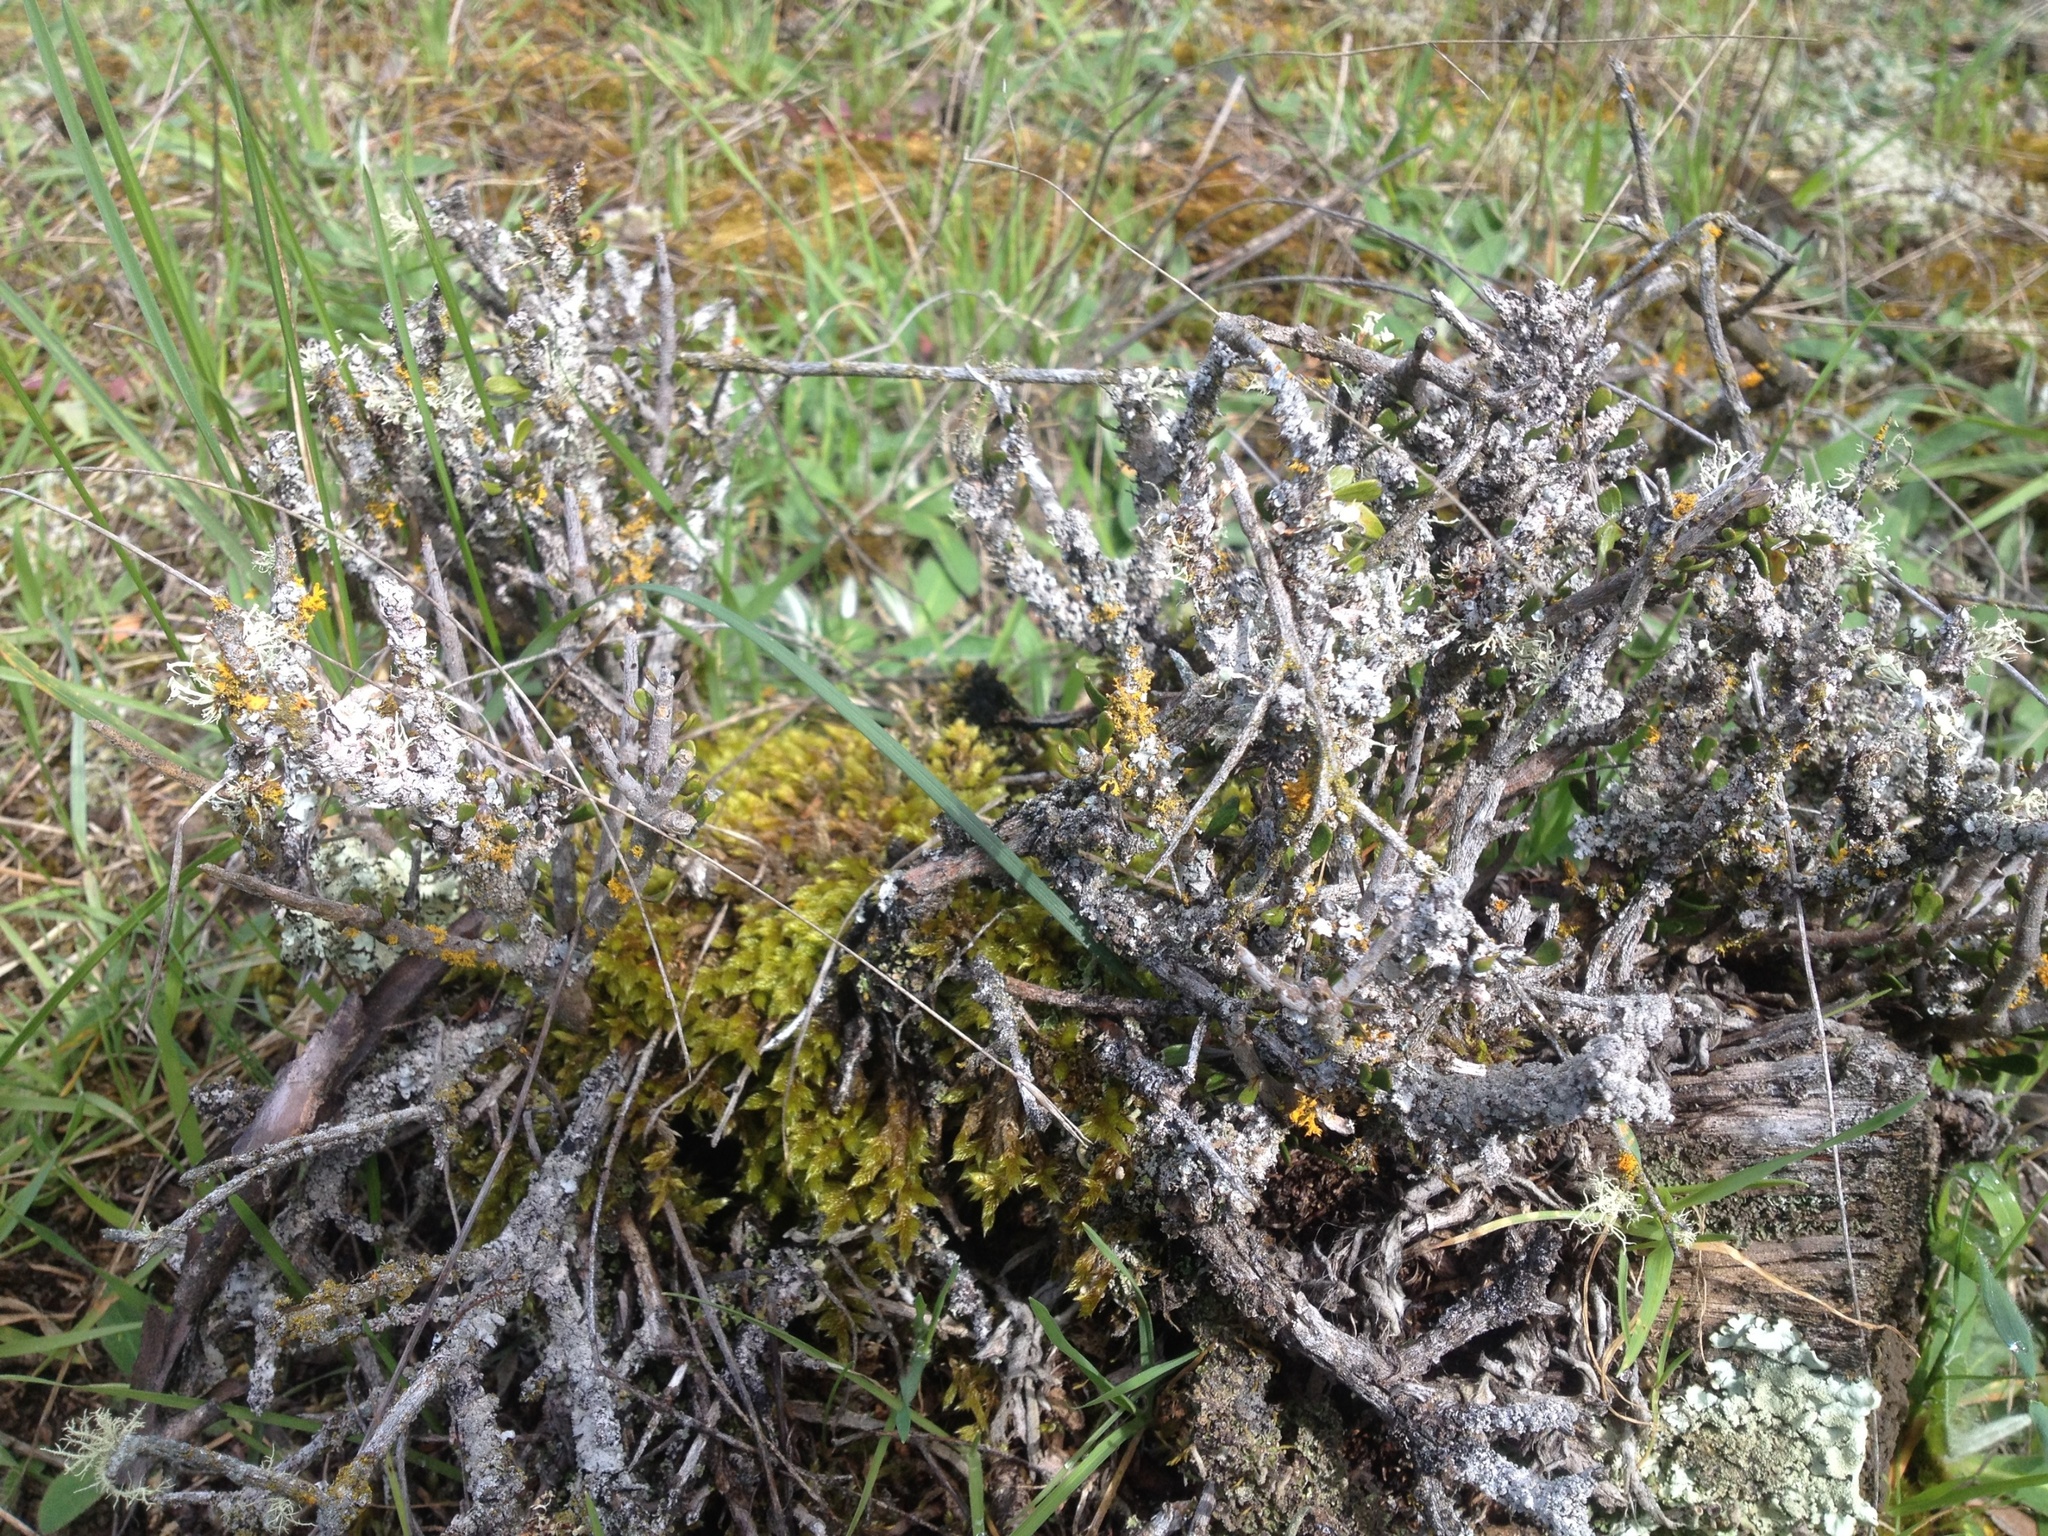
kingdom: Plantae
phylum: Tracheophyta
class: Magnoliopsida
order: Malpighiales
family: Violaceae
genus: Melicytus
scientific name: Melicytus alpinus
